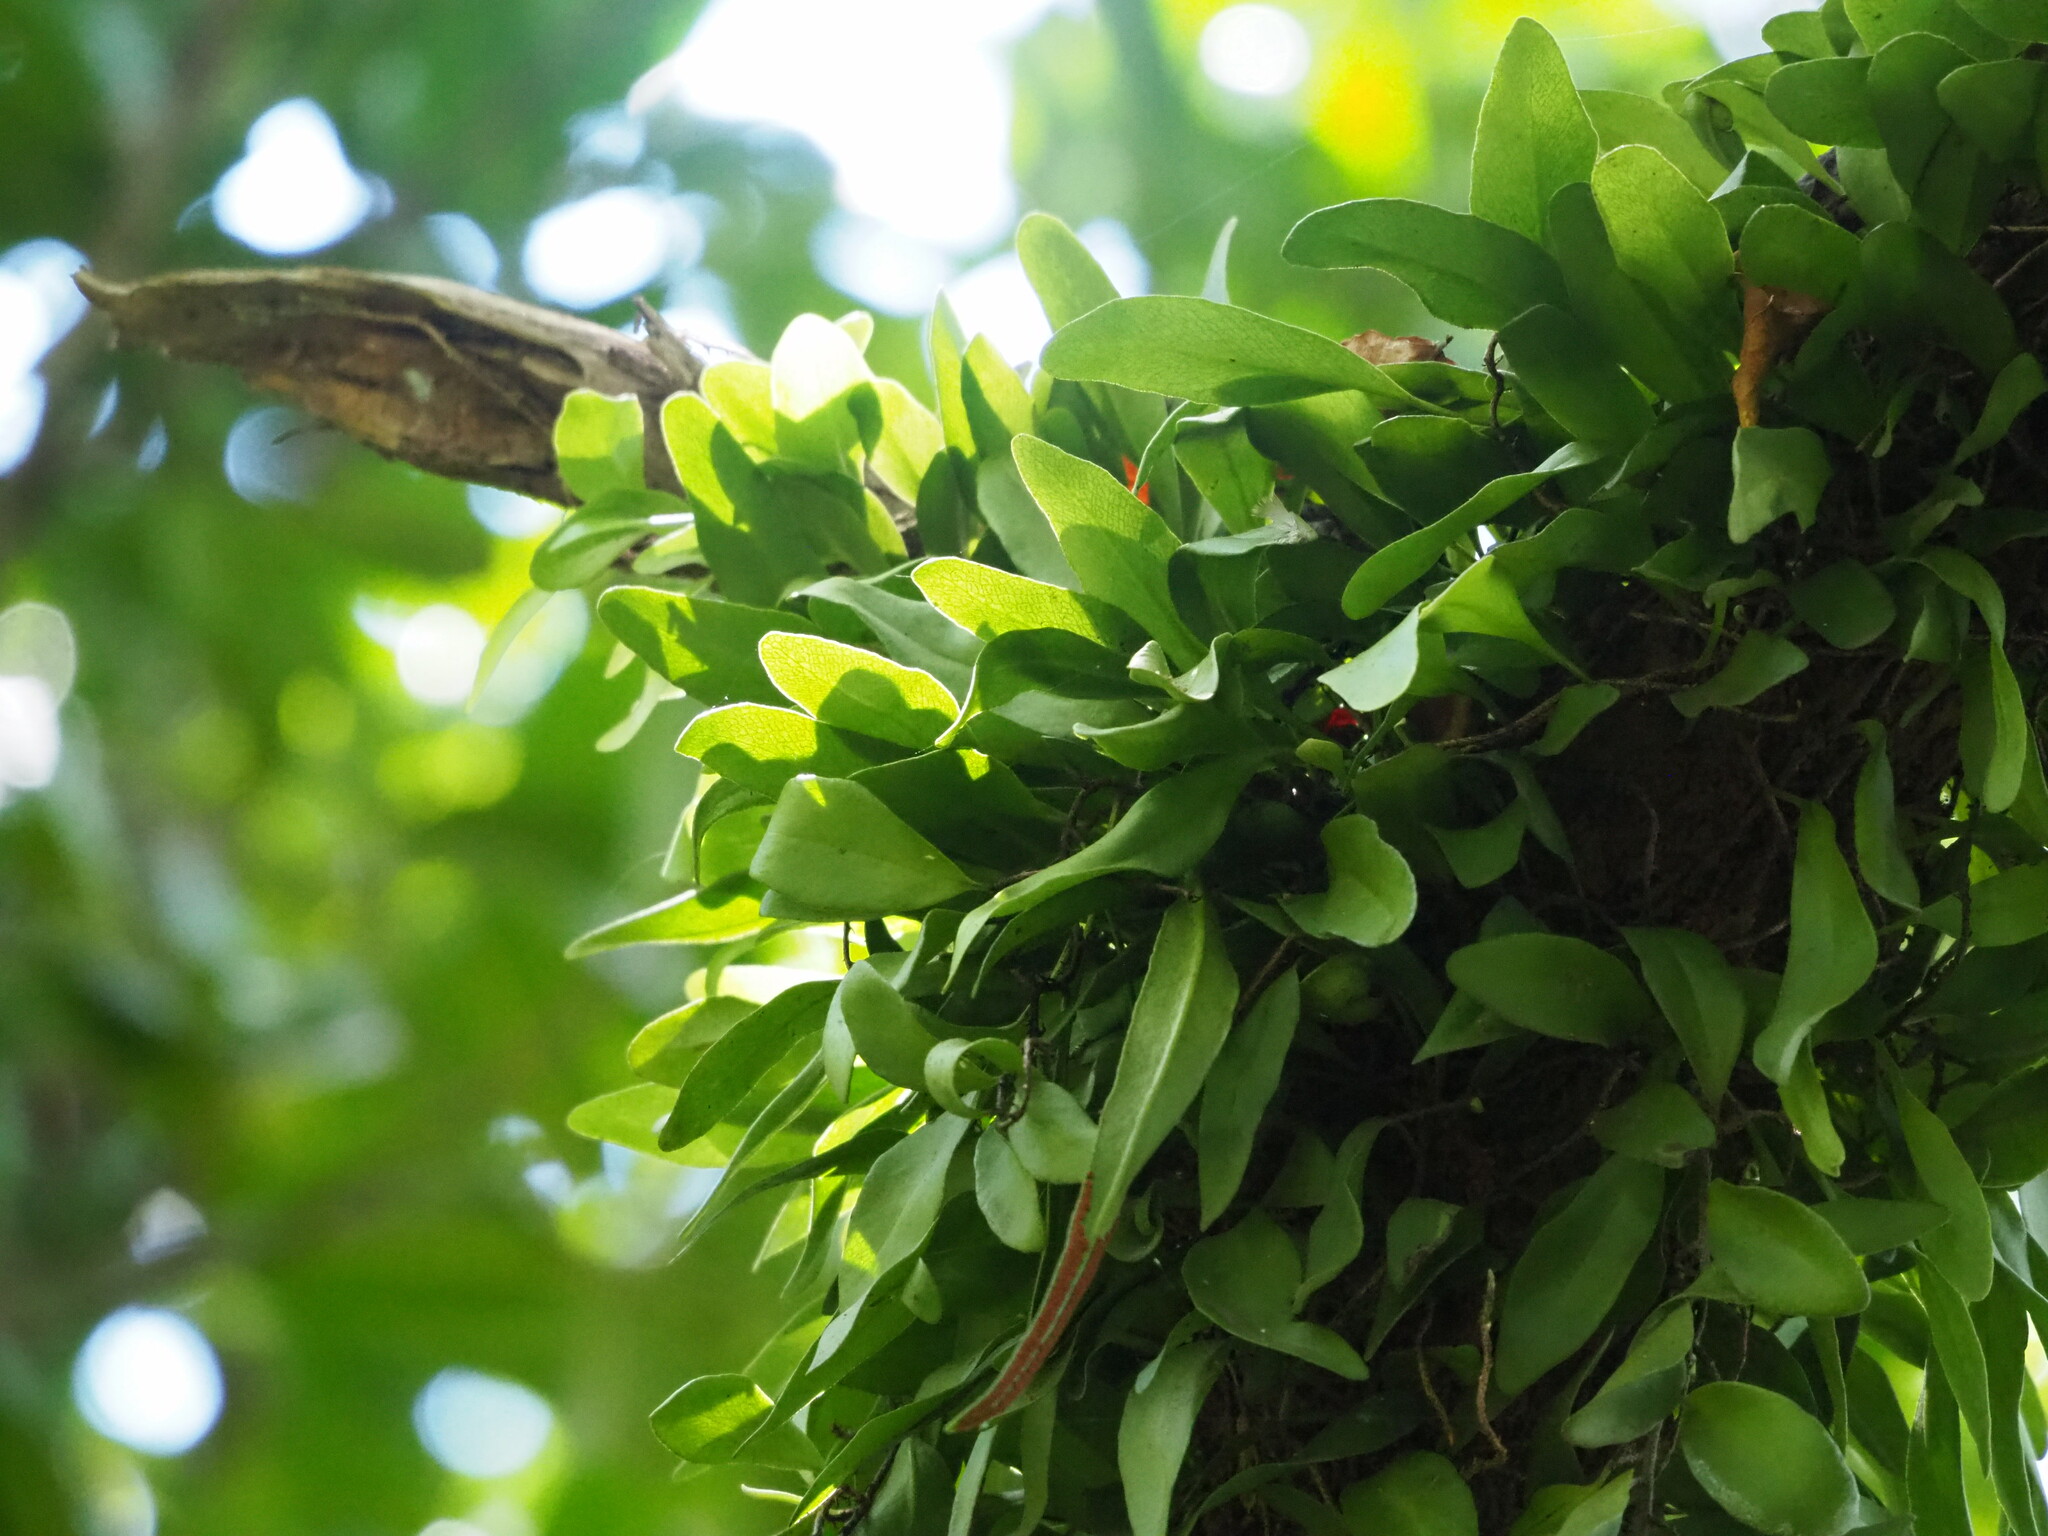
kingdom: Plantae
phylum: Tracheophyta
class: Polypodiopsida
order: Polypodiales
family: Polypodiaceae
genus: Pyrrosia
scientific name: Pyrrosia lanceolata
